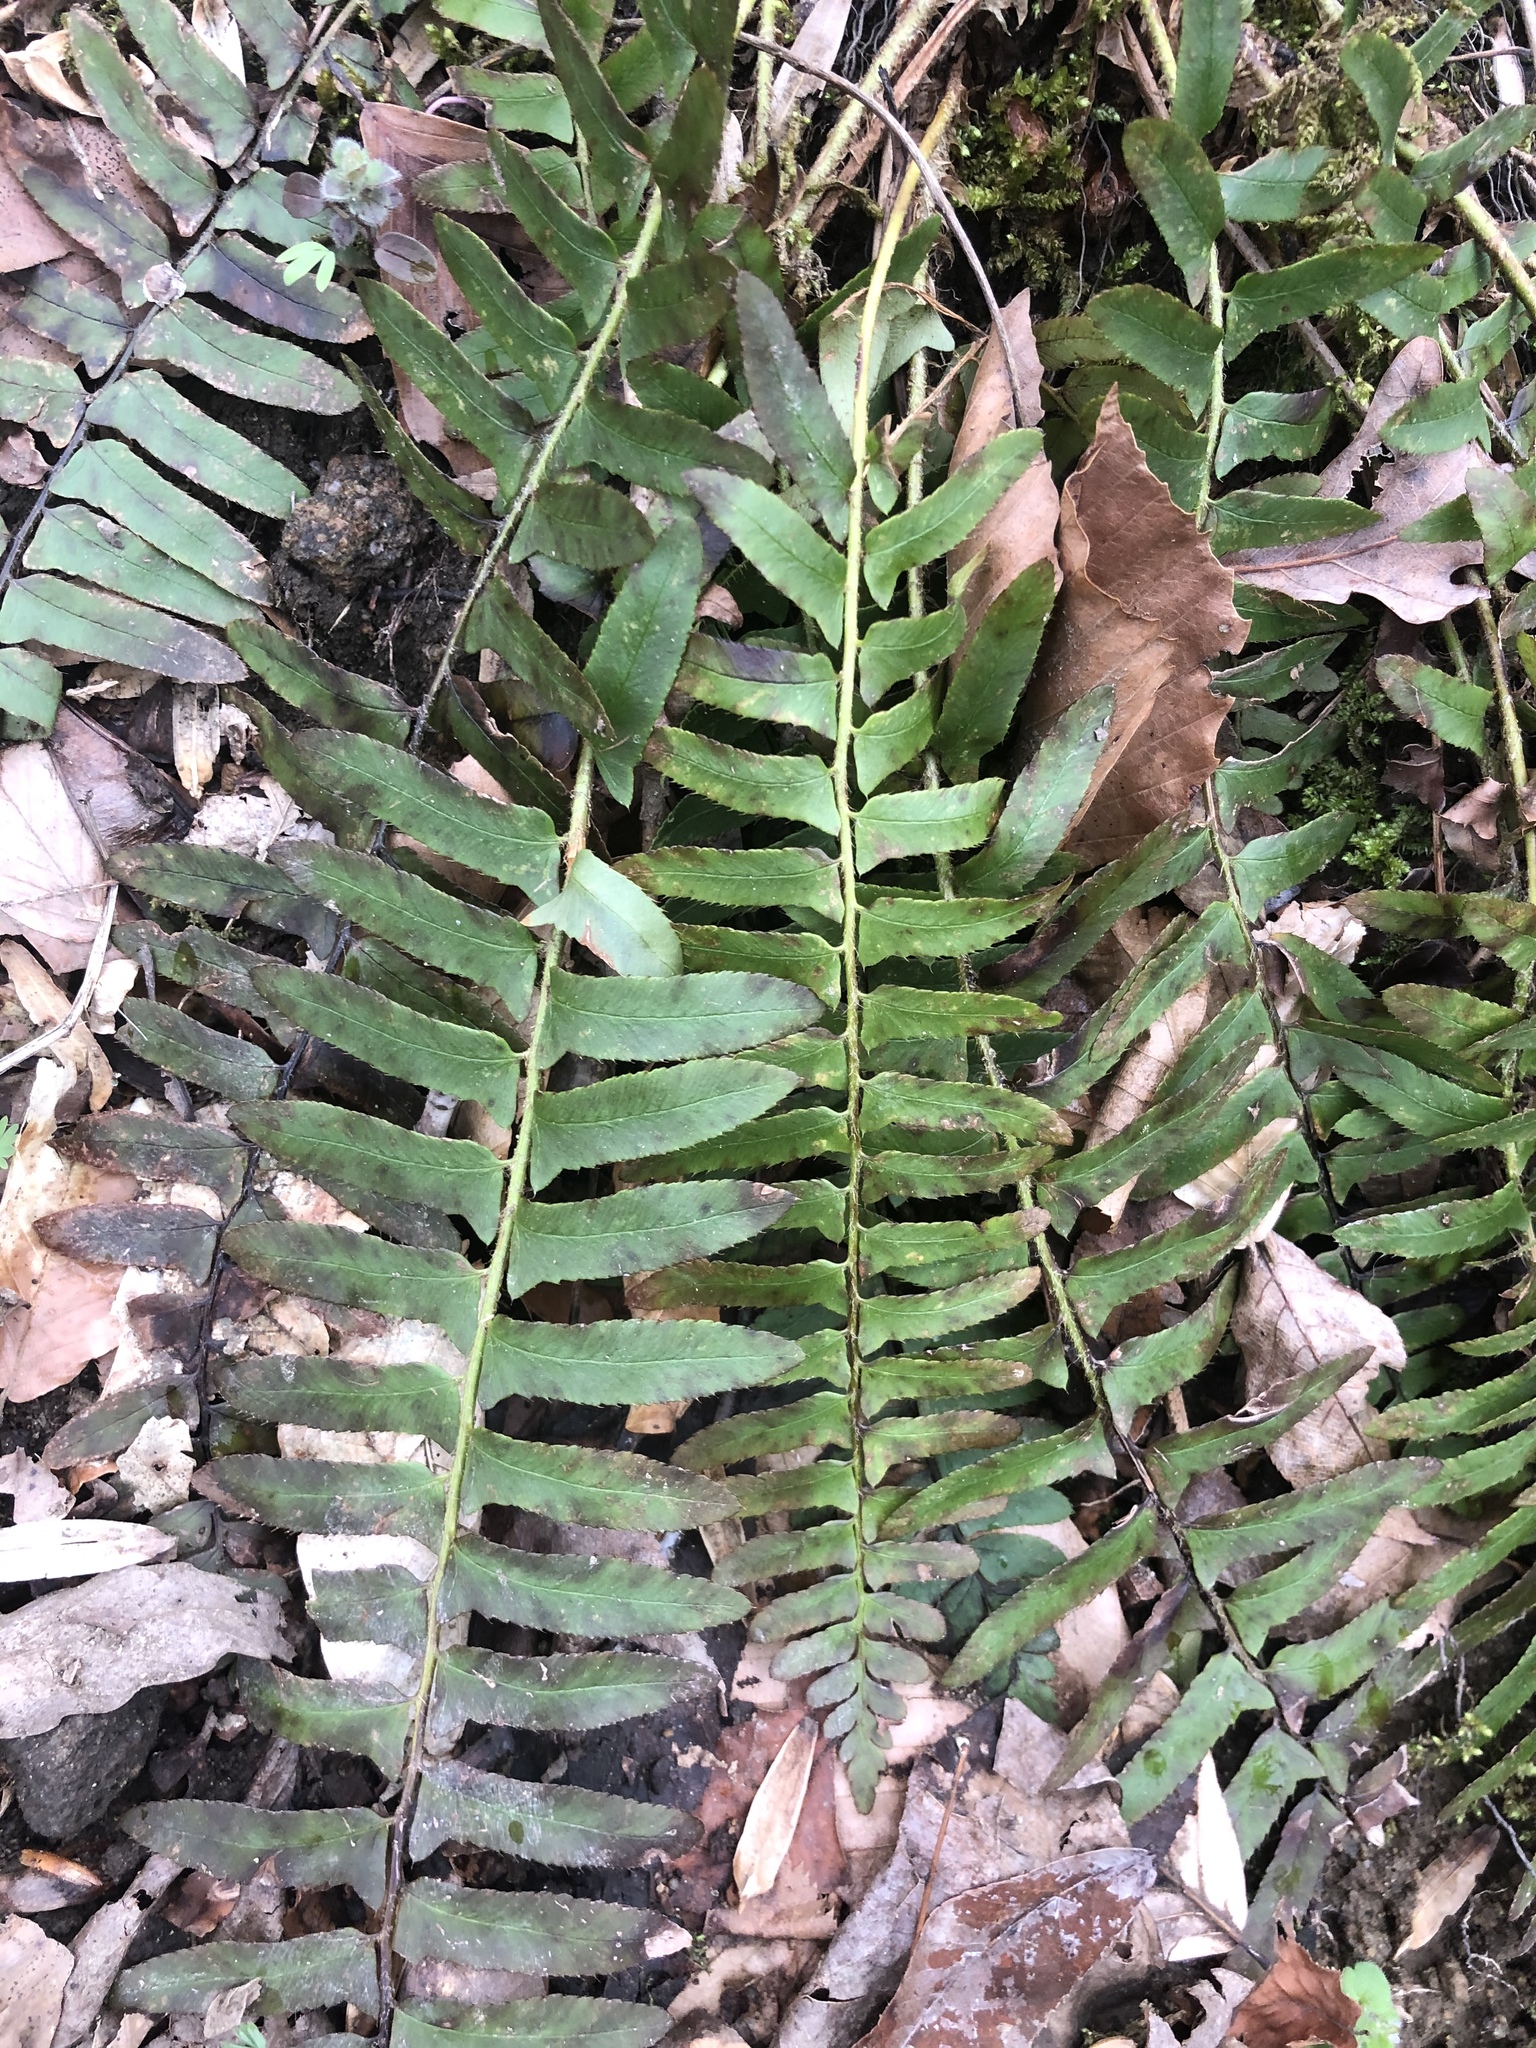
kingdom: Plantae
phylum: Tracheophyta
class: Polypodiopsida
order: Polypodiales
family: Dryopteridaceae
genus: Polystichum
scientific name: Polystichum acrostichoides
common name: Christmas fern
